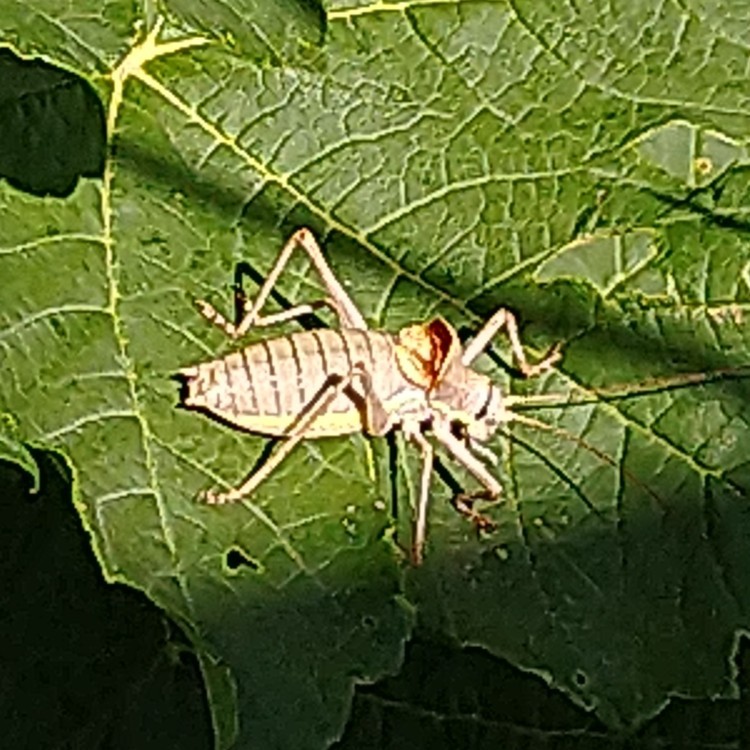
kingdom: Animalia
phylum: Arthropoda
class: Insecta
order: Orthoptera
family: Tettigoniidae
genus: Ephippiger
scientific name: Ephippiger ephippiger
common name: Eastern saddle bush-cricket
